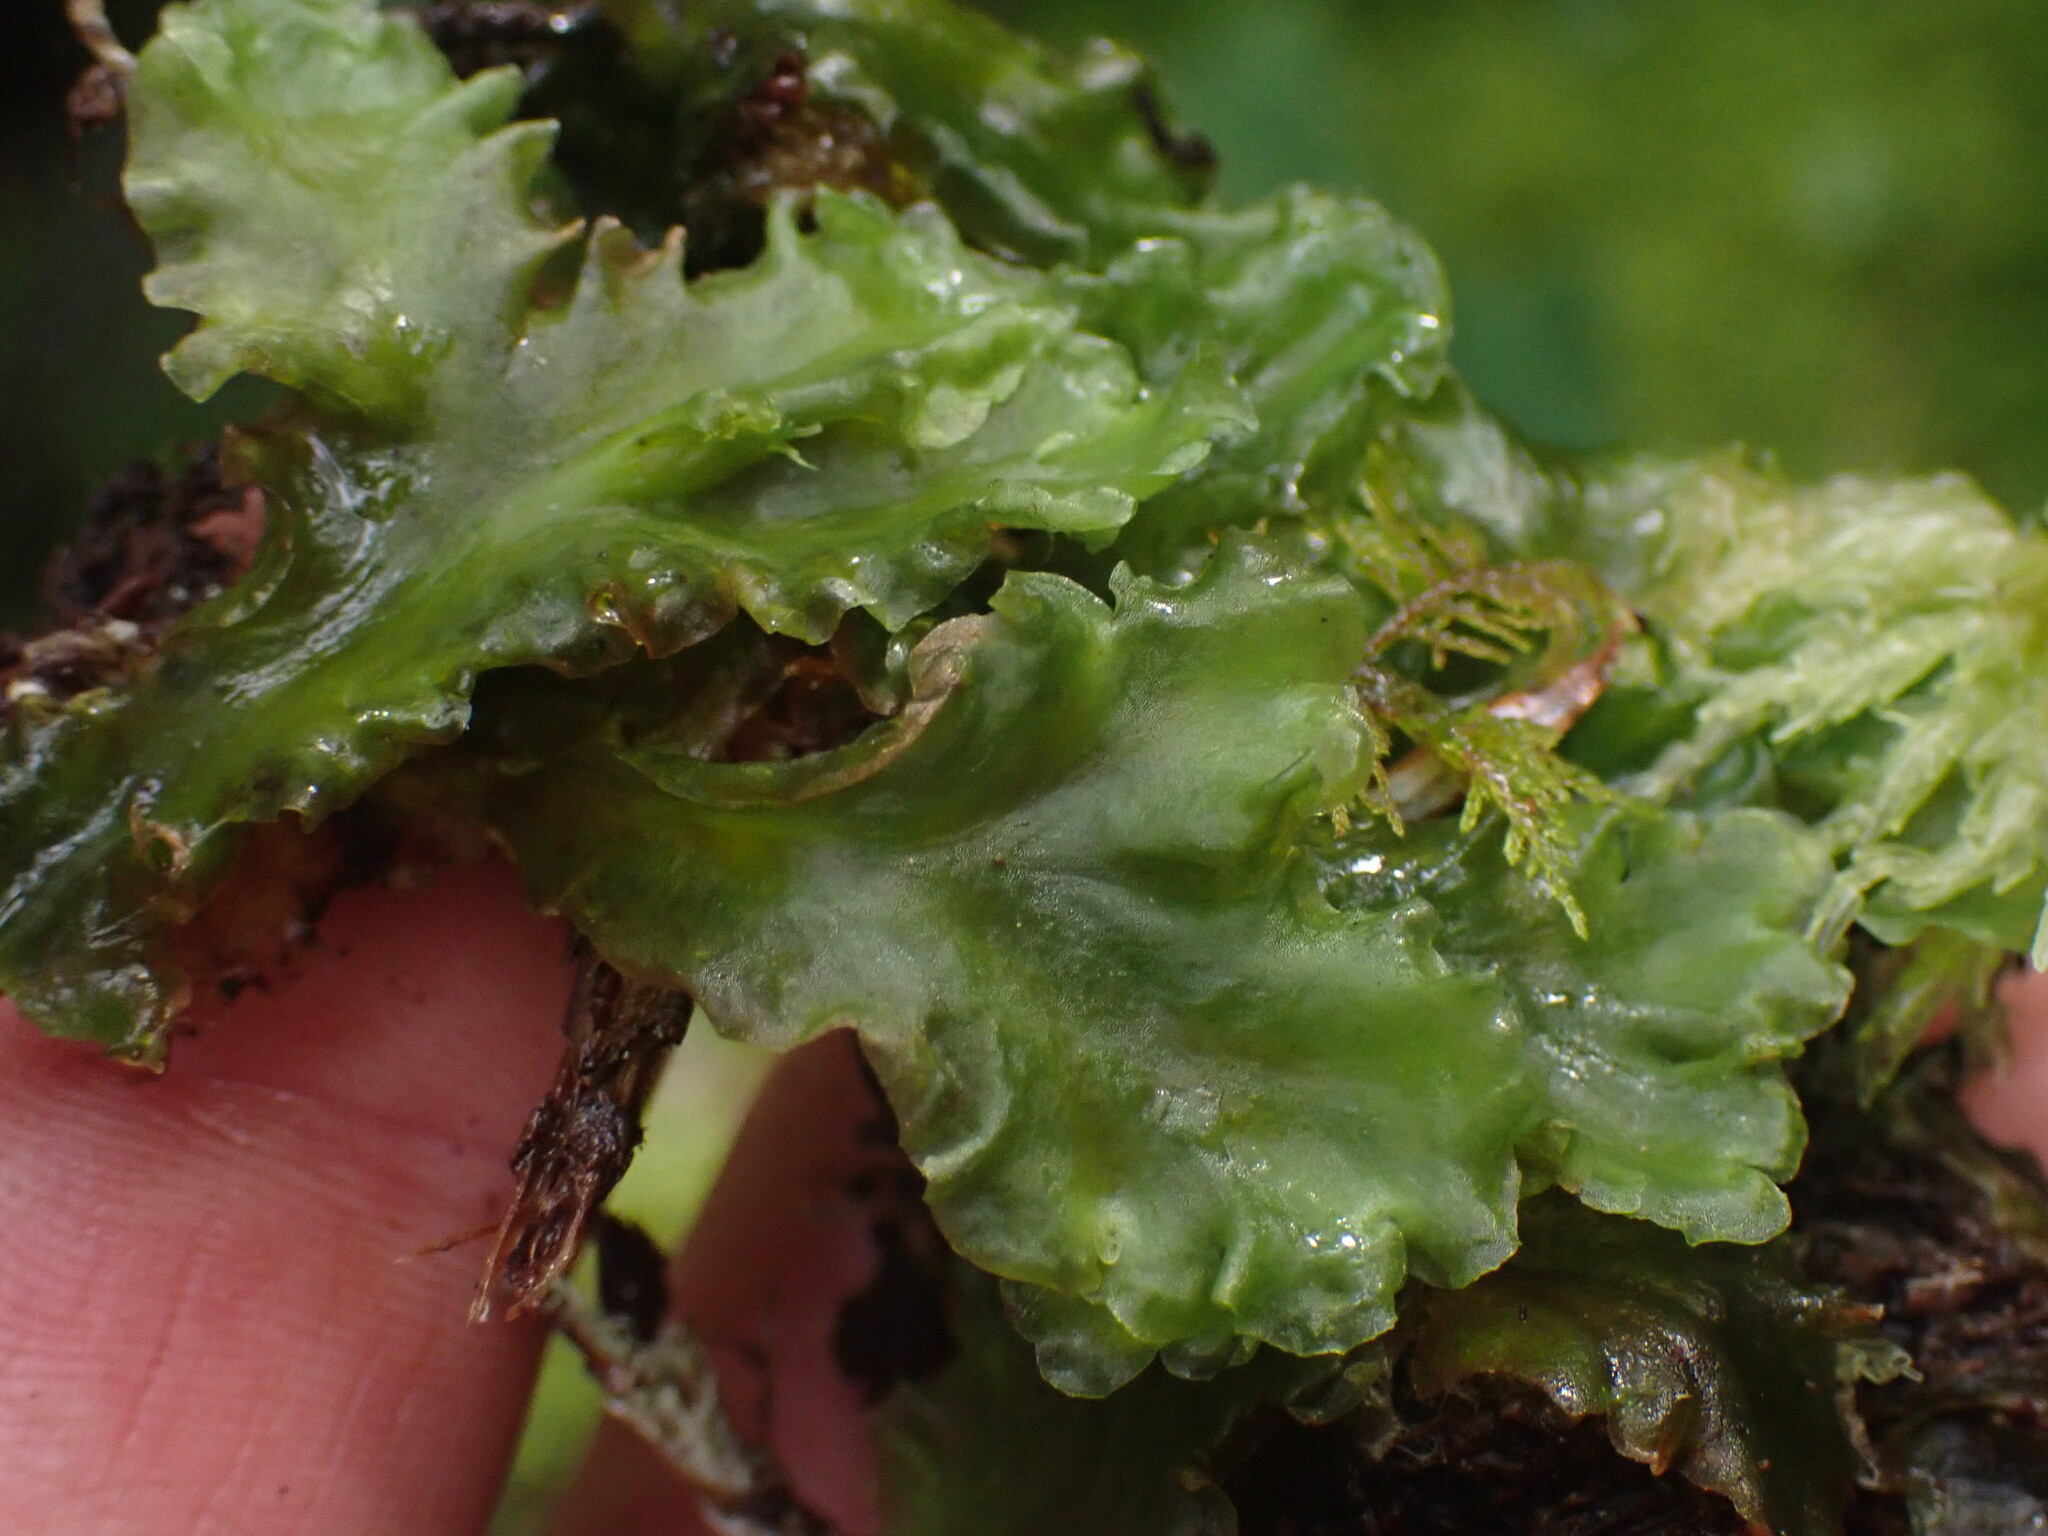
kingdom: Plantae
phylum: Marchantiophyta
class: Jungermanniopsida
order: Pelliales
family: Pelliaceae
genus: Pellia
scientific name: Pellia neesiana
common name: Nees  pellia
